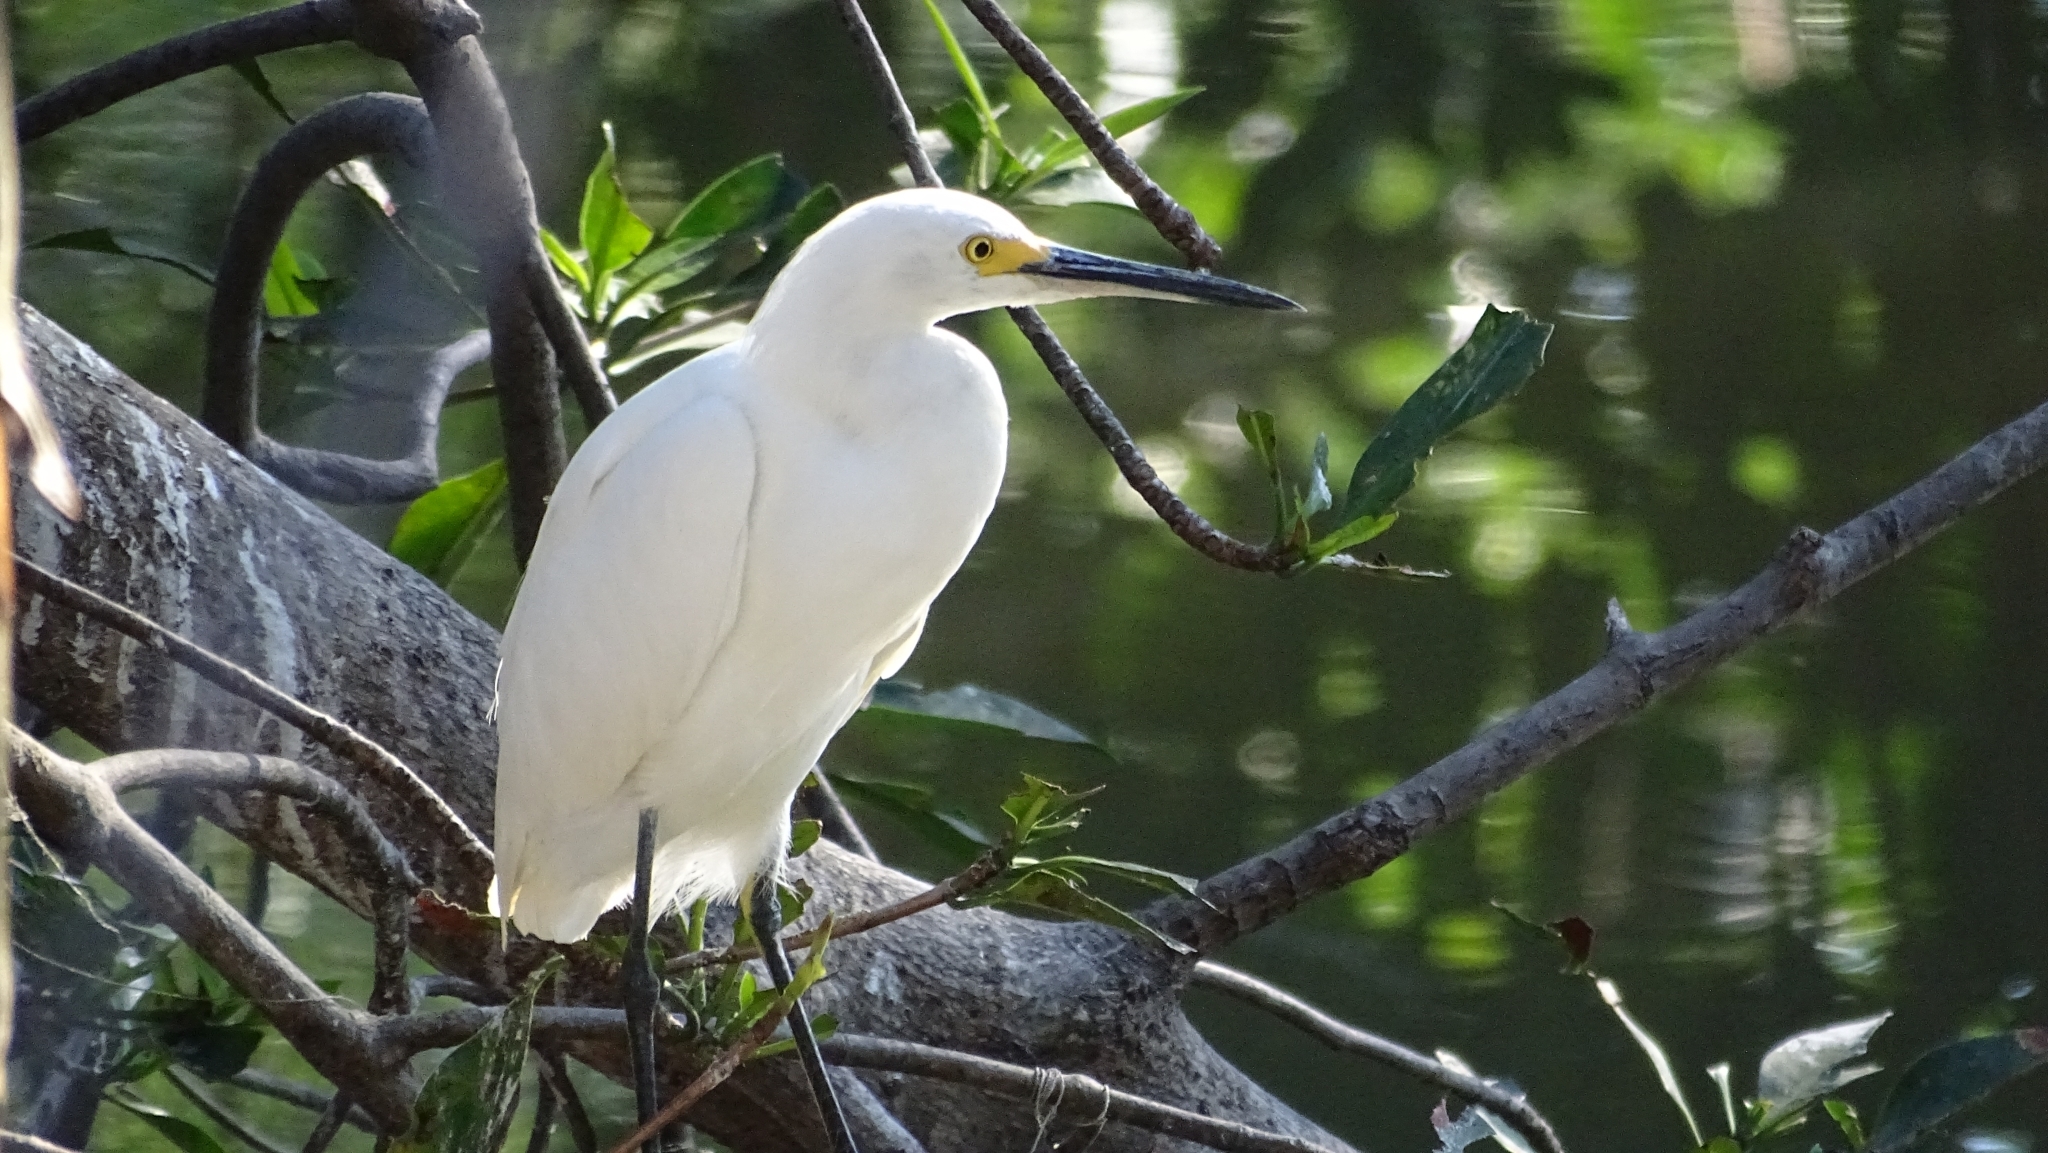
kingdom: Animalia
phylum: Chordata
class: Aves
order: Pelecaniformes
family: Ardeidae
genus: Egretta
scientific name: Egretta thula
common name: Snowy egret
